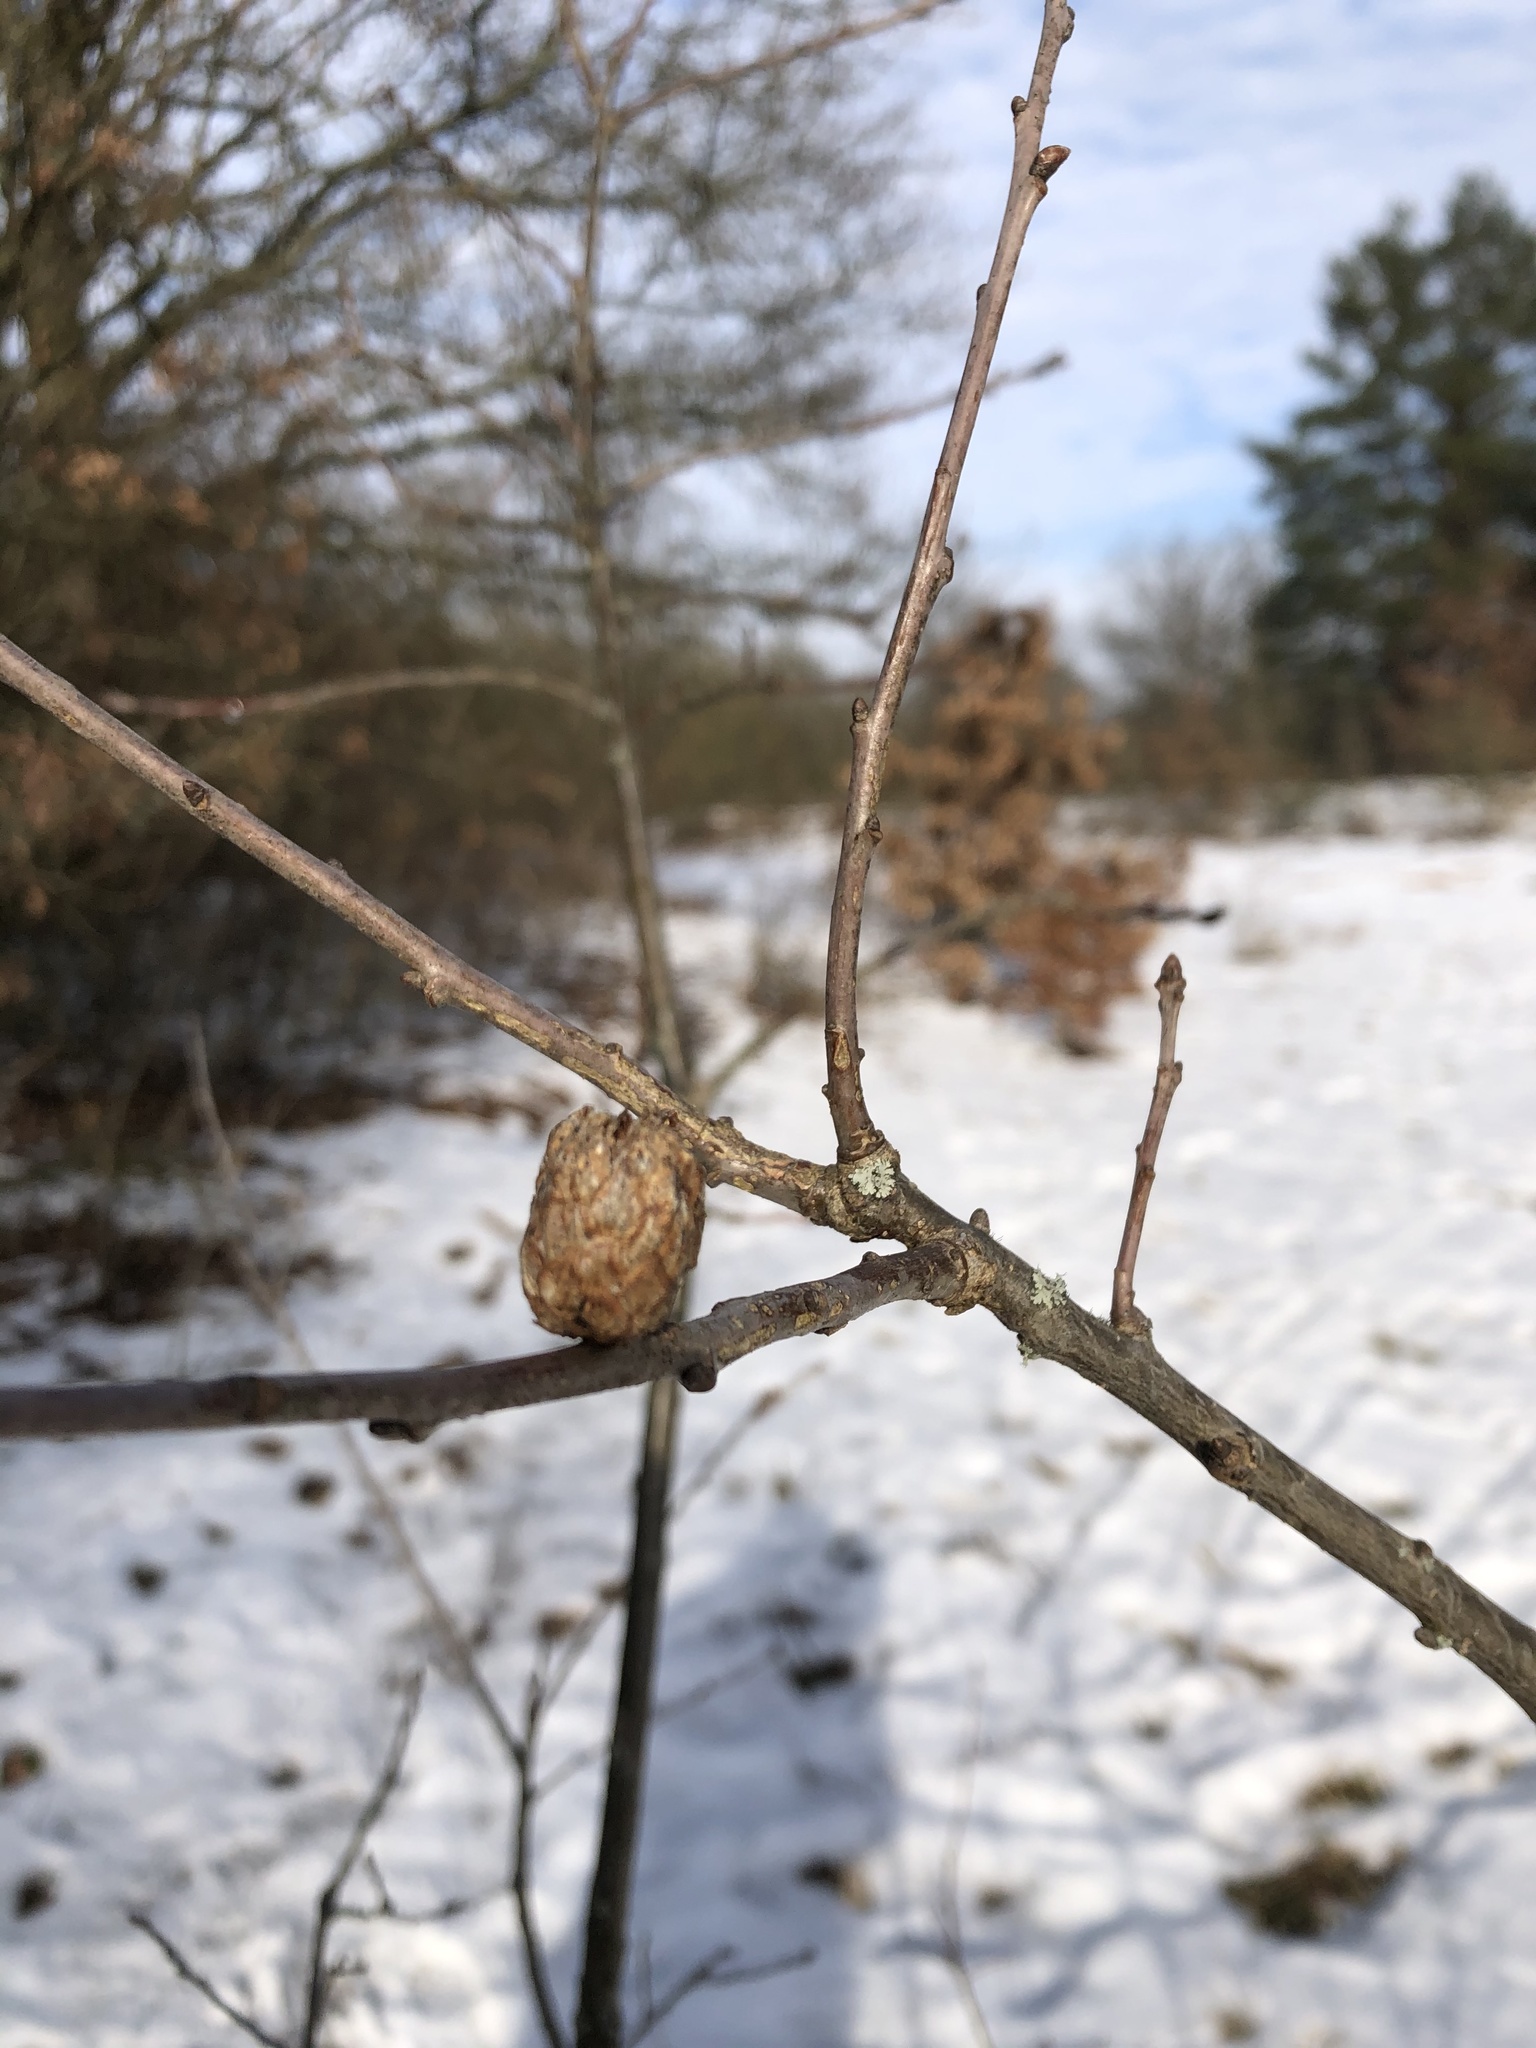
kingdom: Animalia
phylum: Arthropoda
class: Insecta
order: Hymenoptera
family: Cynipidae
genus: Andricus
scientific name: Andricus foecundatrix
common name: Artichoke gall
